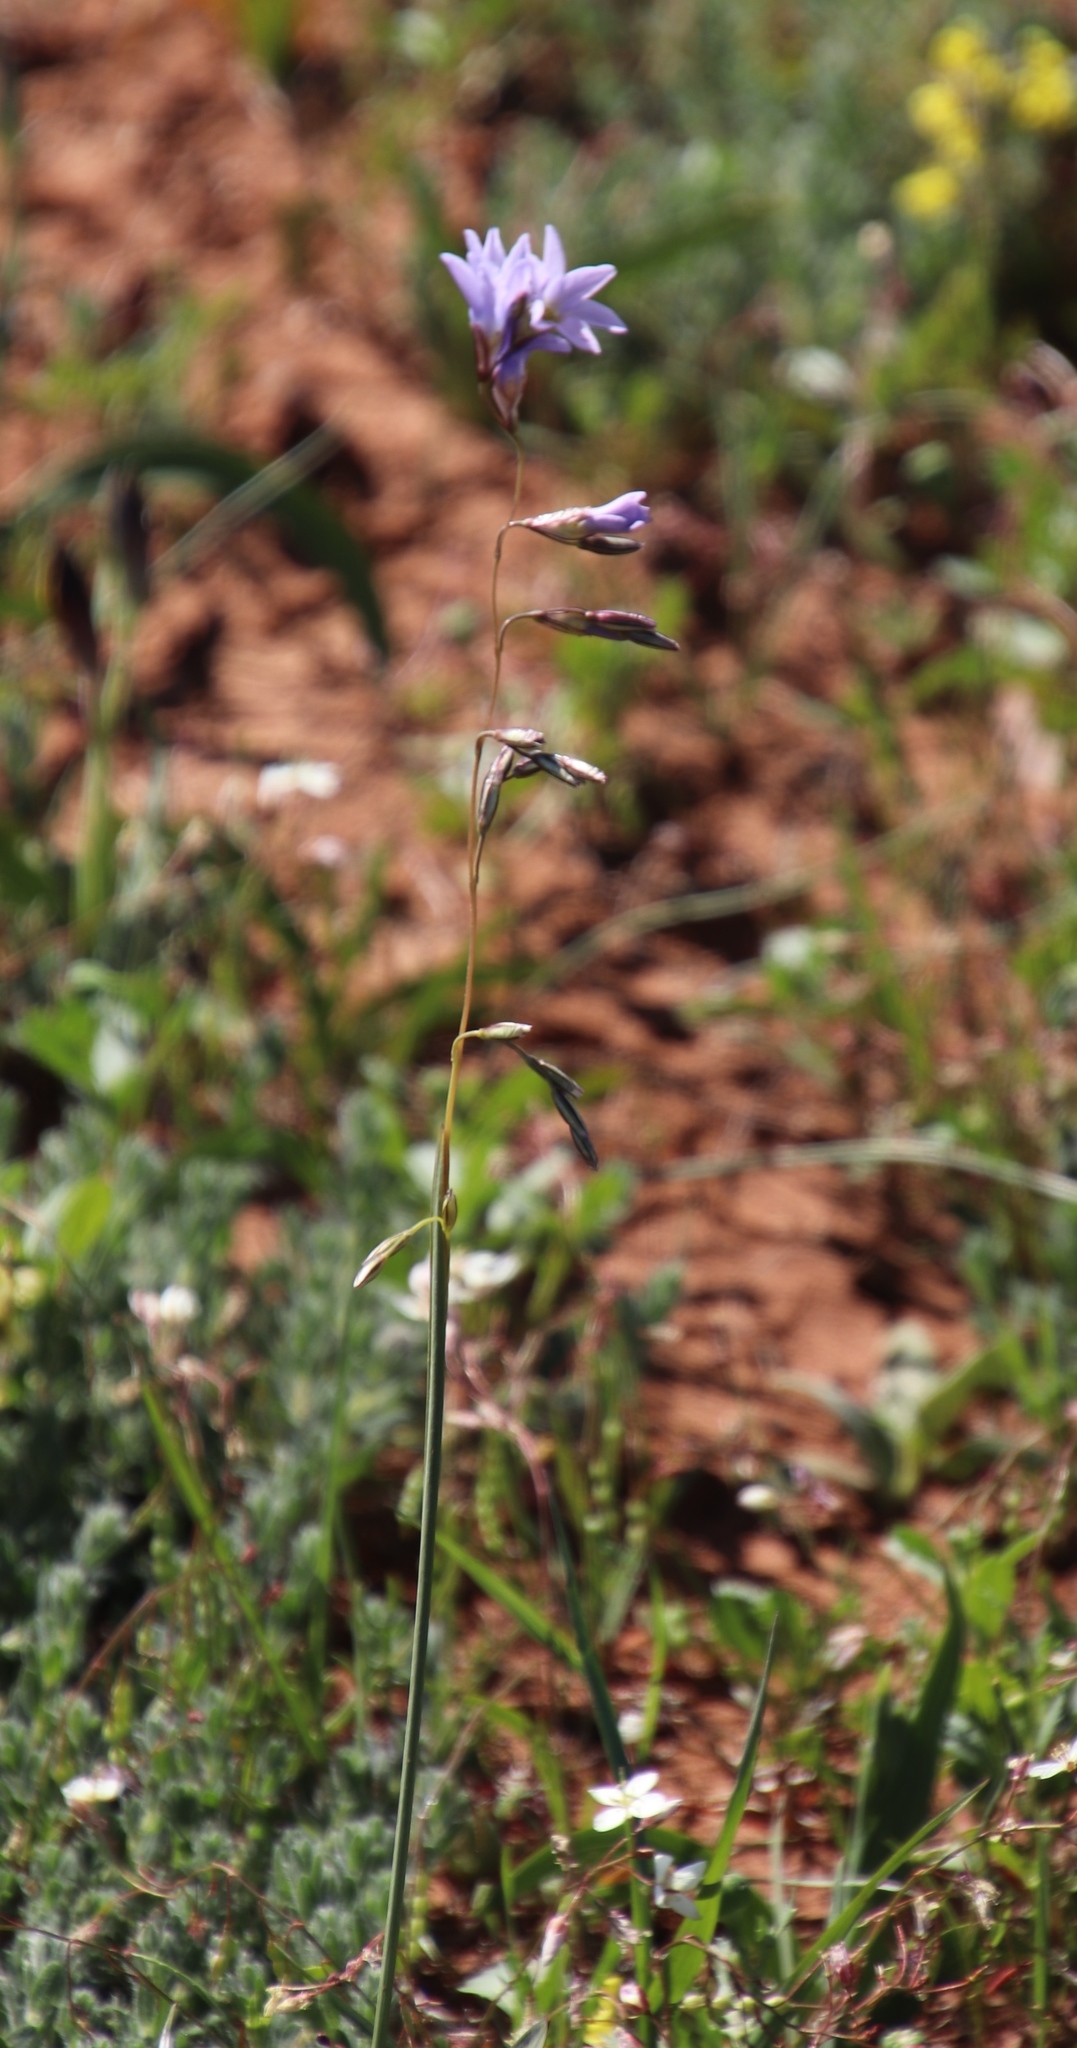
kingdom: Plantae
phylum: Tracheophyta
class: Liliopsida
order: Asparagales
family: Iridaceae
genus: Ixia
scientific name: Ixia rapunculoides
